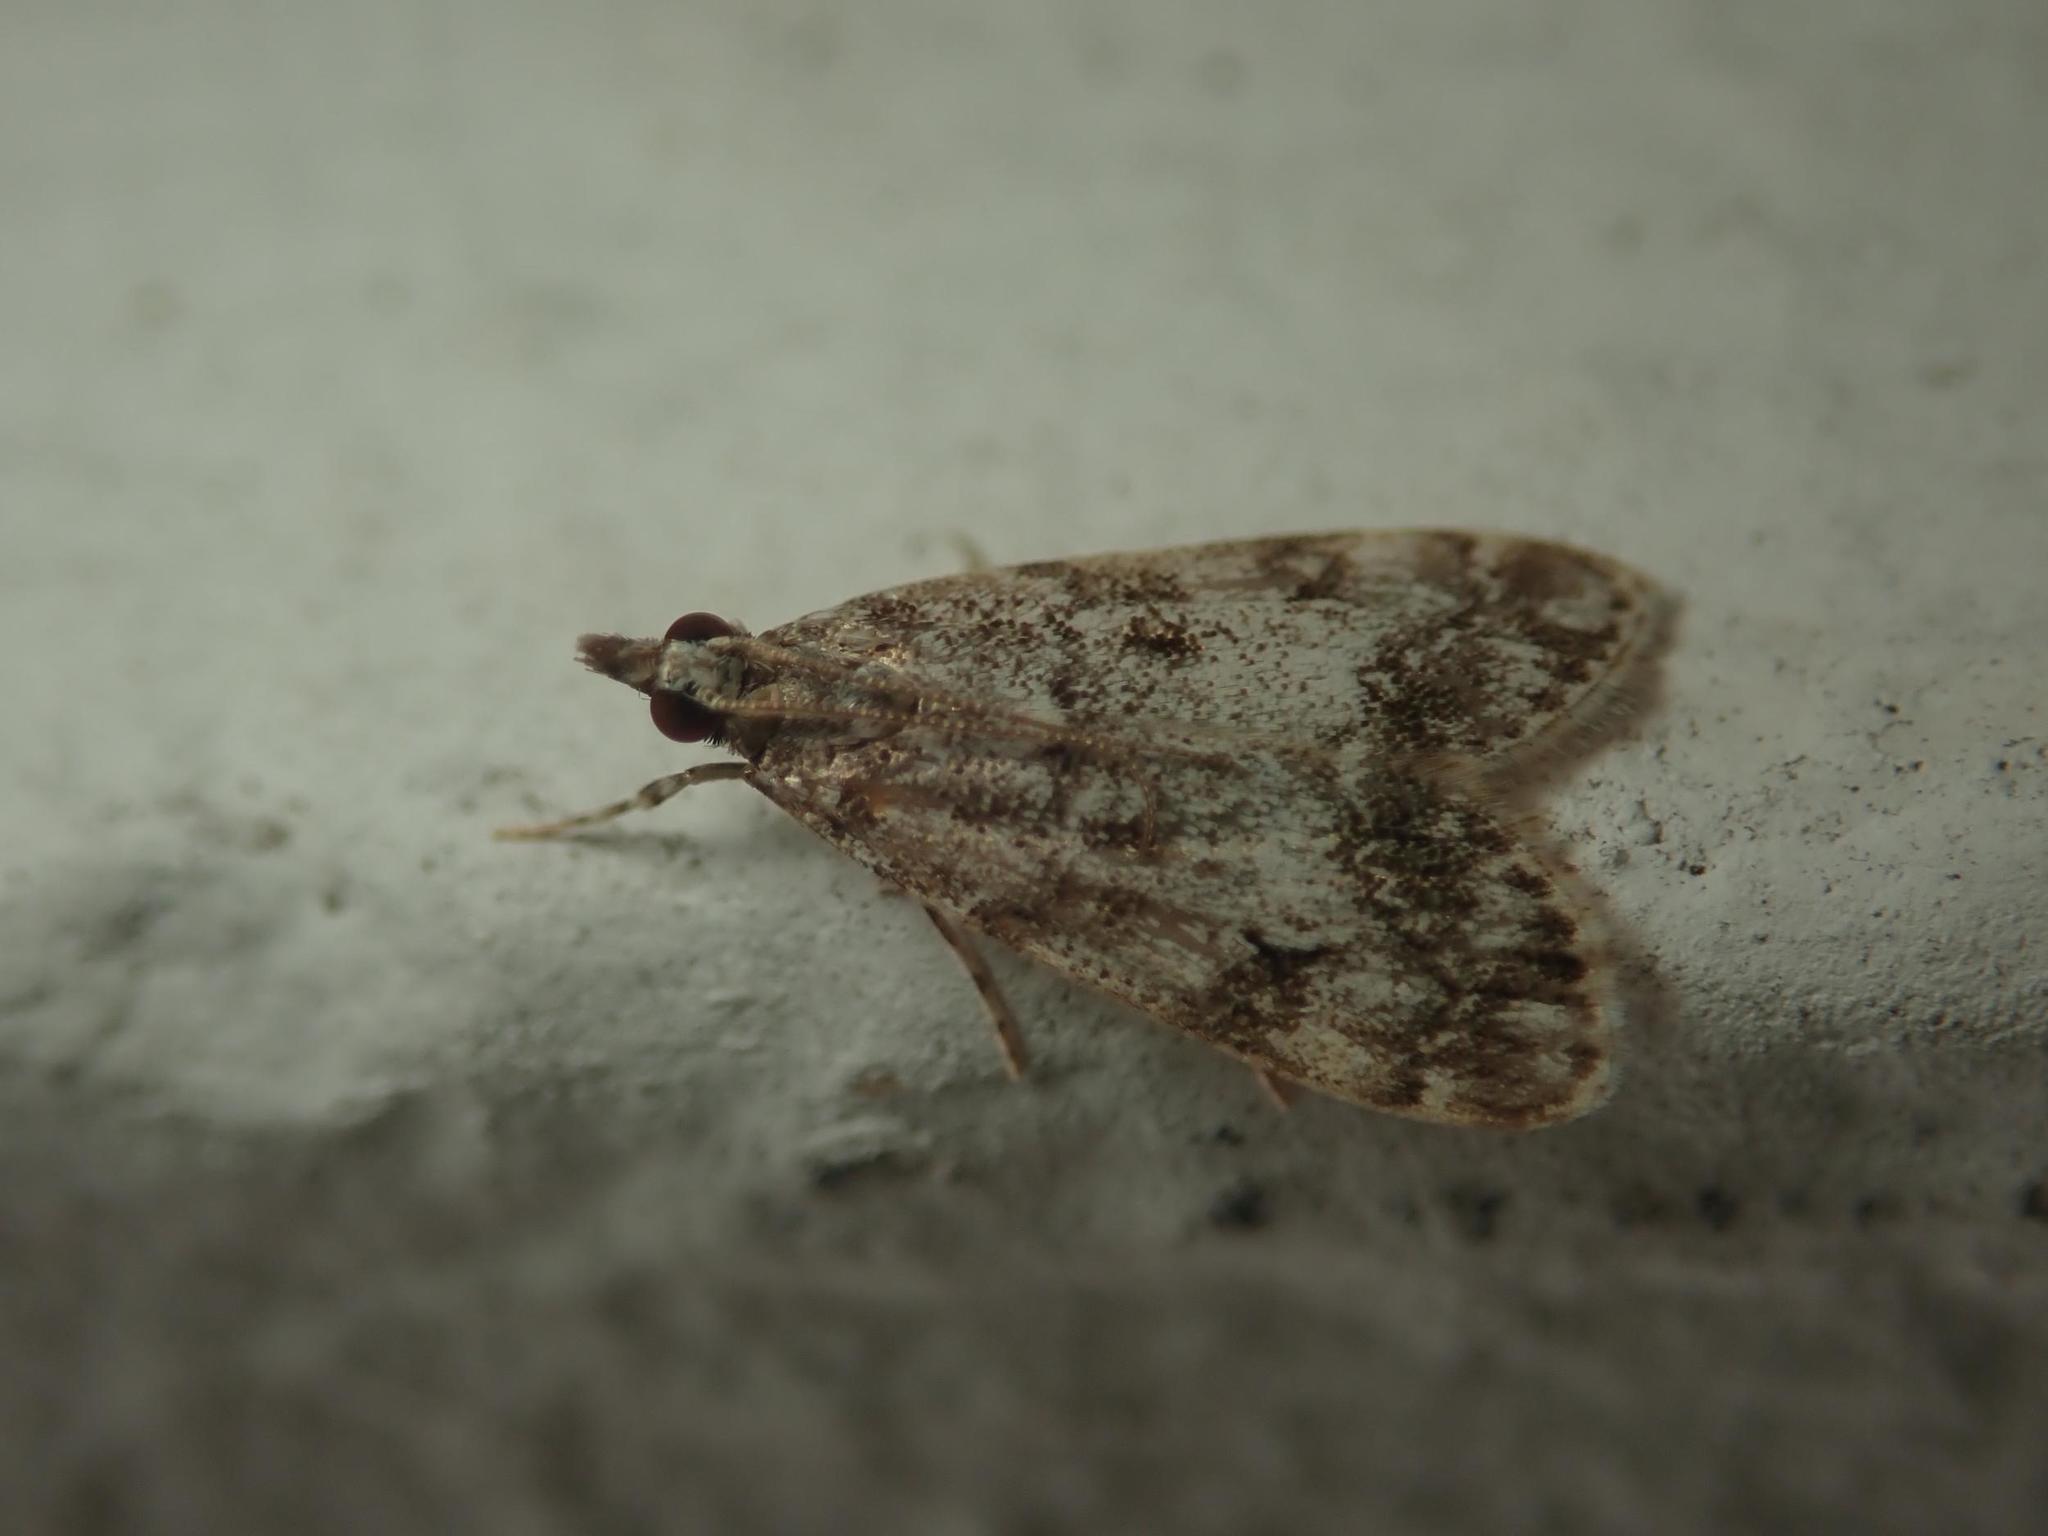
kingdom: Animalia
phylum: Arthropoda
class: Insecta
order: Lepidoptera
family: Crambidae
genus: Eudonia
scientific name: Eudonia lacustrata
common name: Little grey
